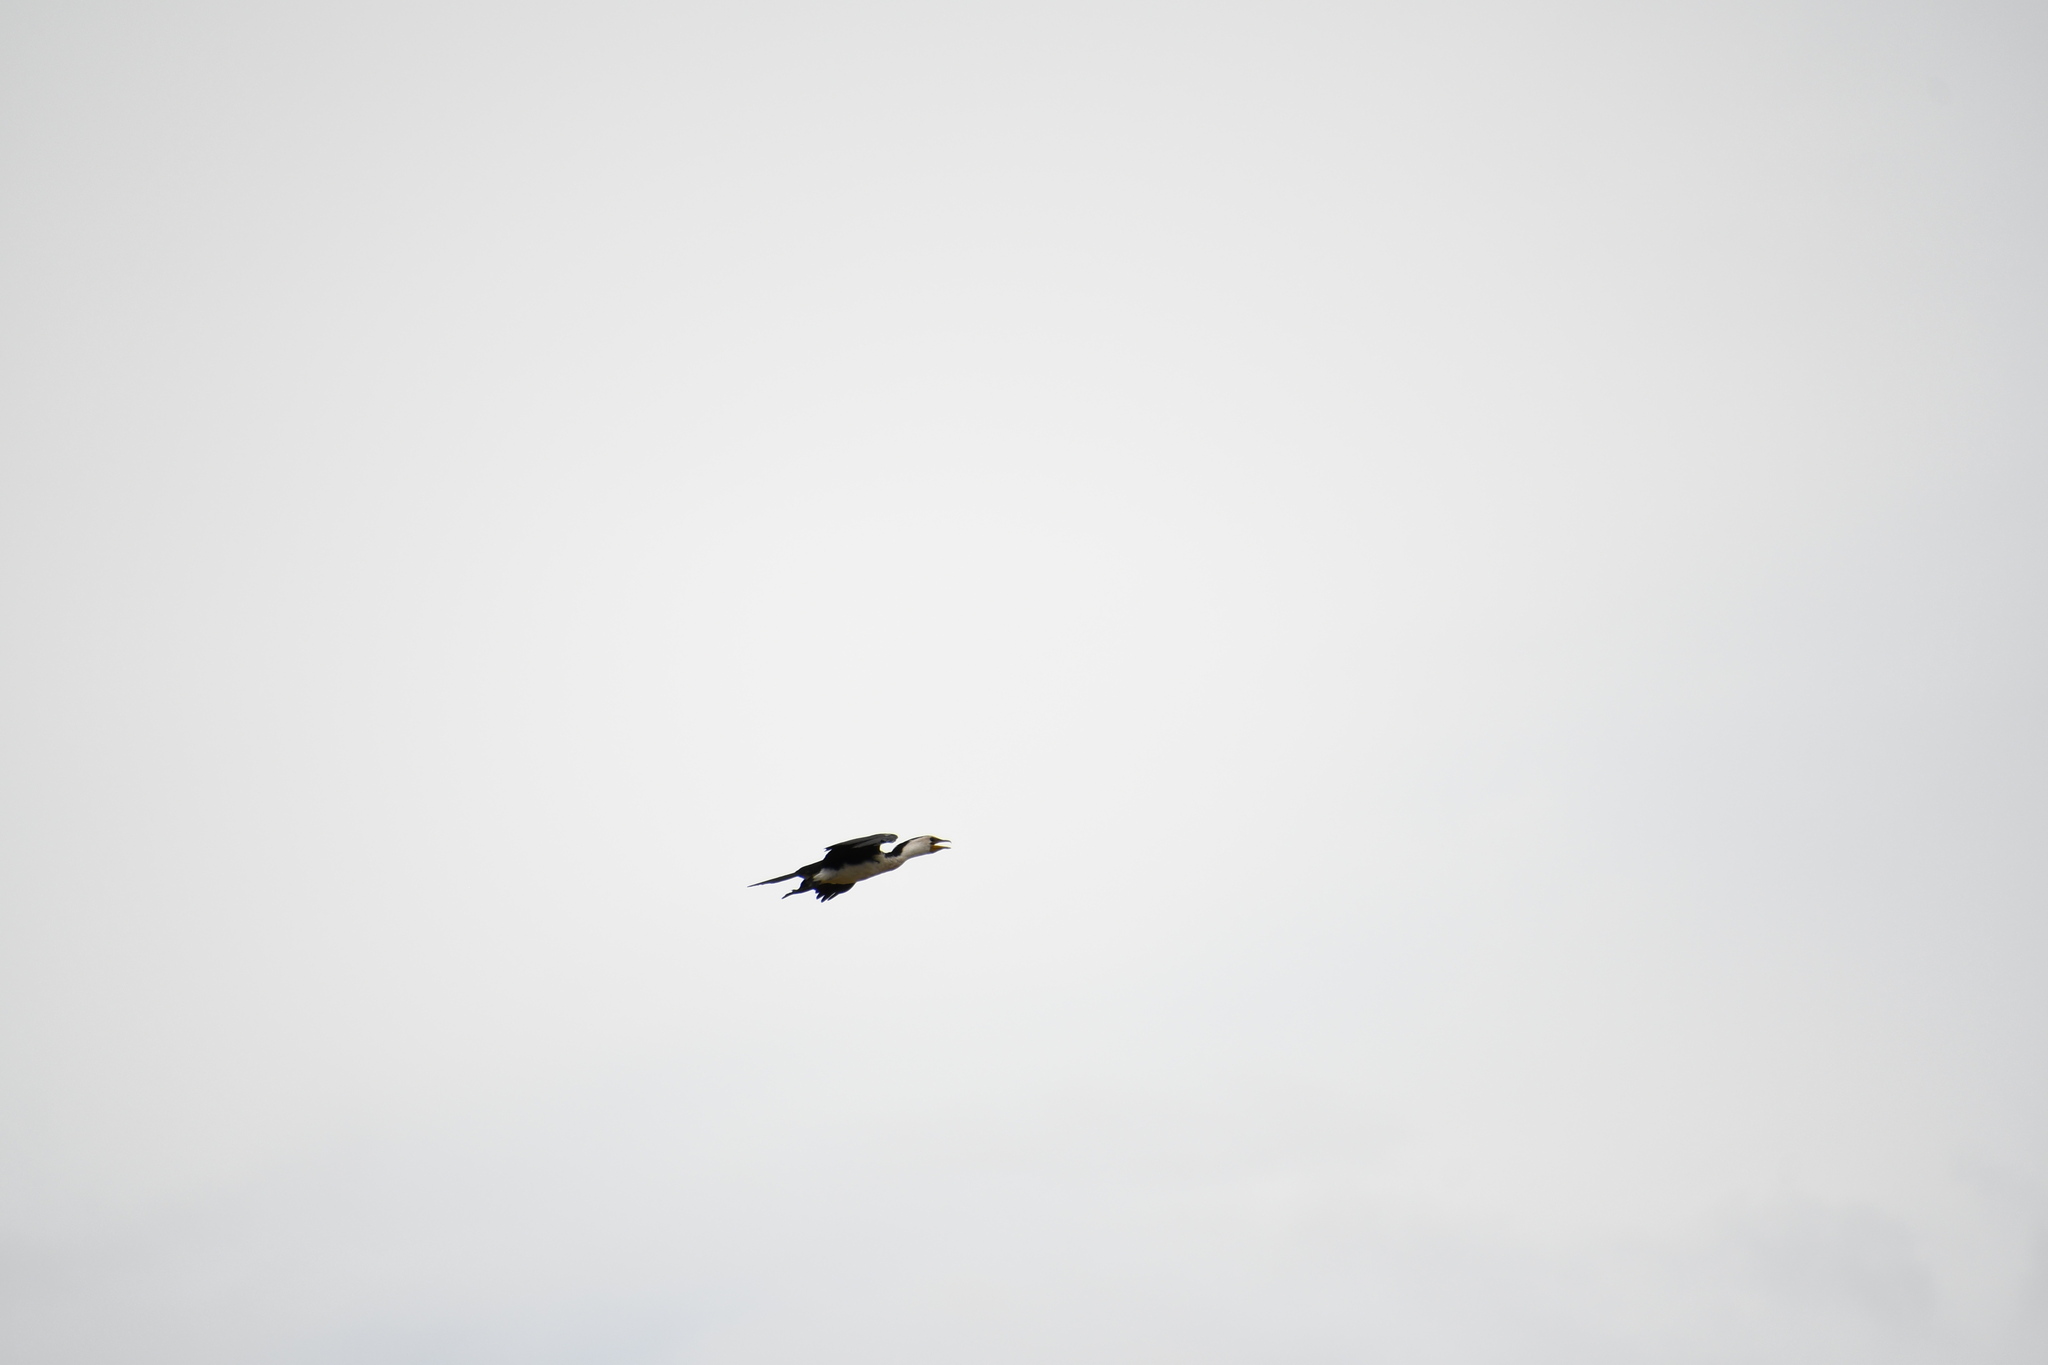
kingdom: Animalia
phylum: Chordata
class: Aves
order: Suliformes
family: Phalacrocoracidae
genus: Microcarbo
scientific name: Microcarbo melanoleucos
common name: Little pied cormorant
